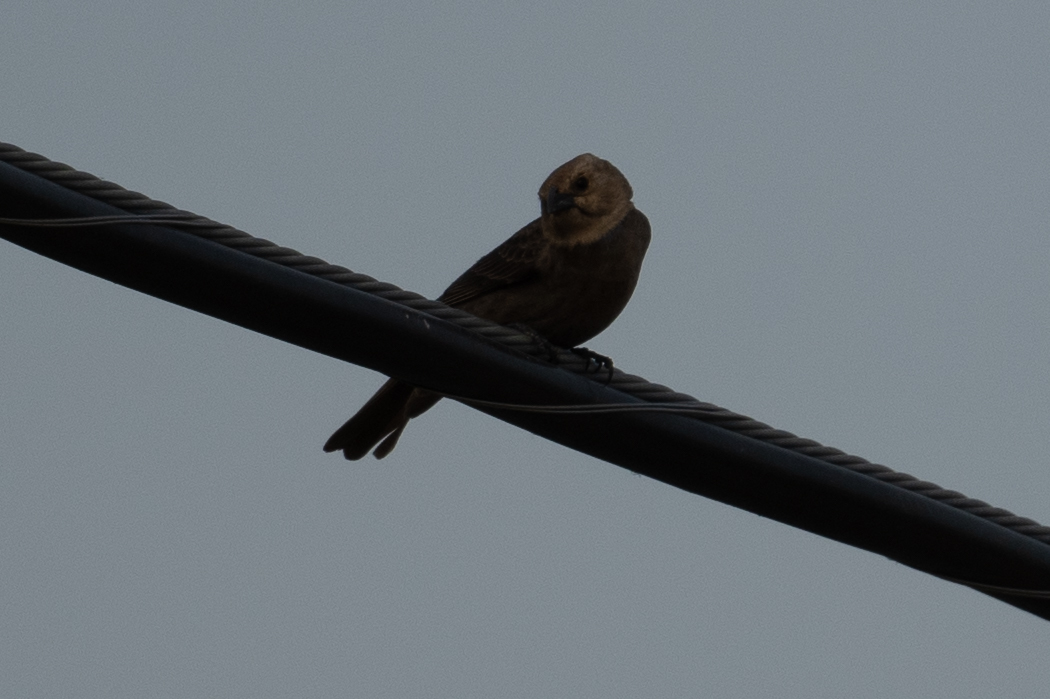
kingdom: Animalia
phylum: Chordata
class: Aves
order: Passeriformes
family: Icteridae
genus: Molothrus
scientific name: Molothrus ater
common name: Brown-headed cowbird
